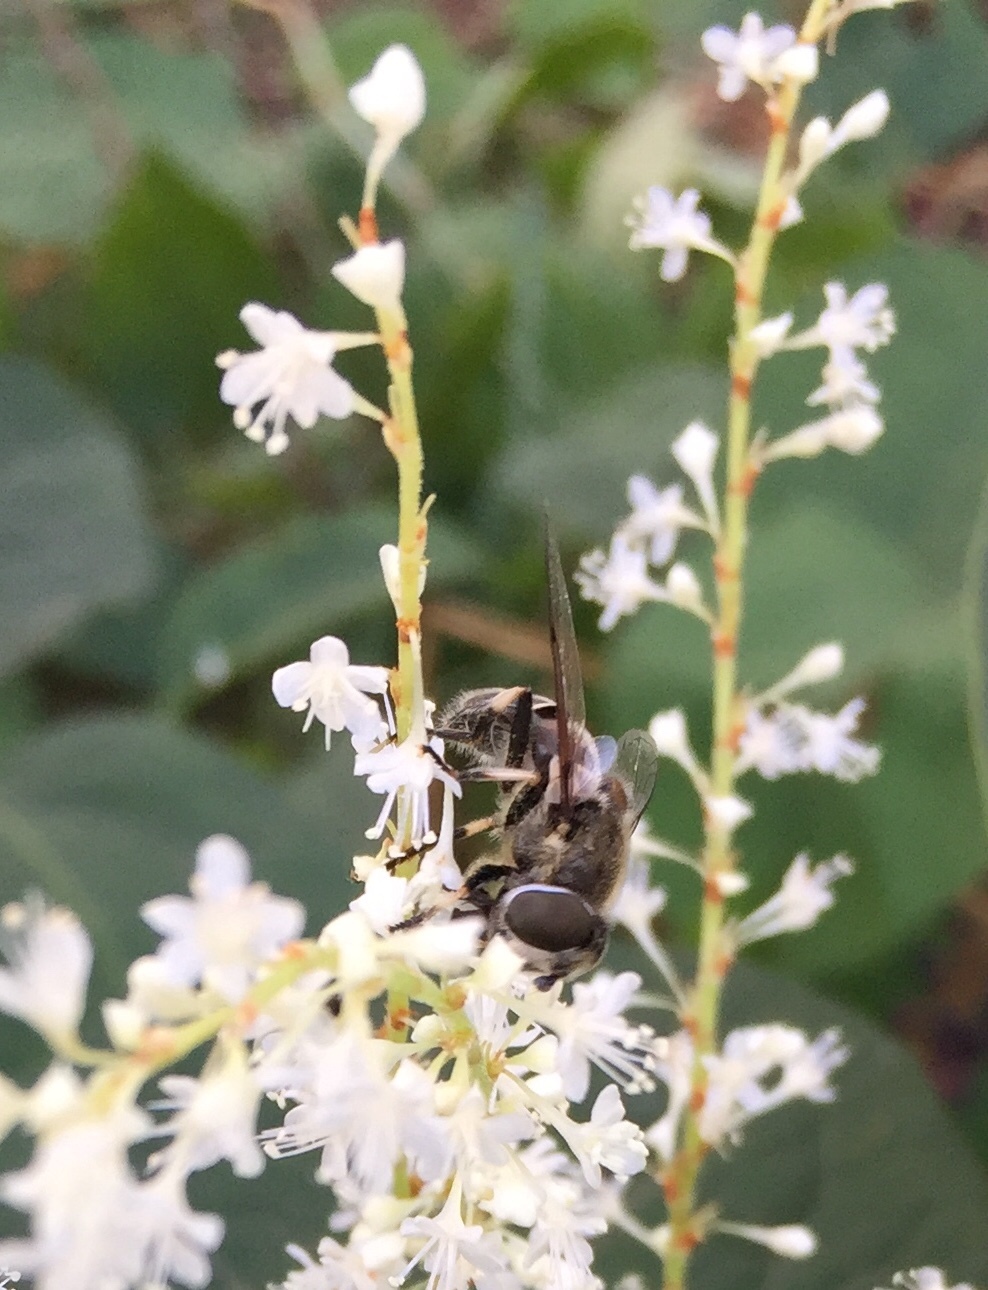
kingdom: Animalia
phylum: Arthropoda
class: Insecta
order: Diptera
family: Syrphidae
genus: Eristalis
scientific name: Eristalis dimidiata
